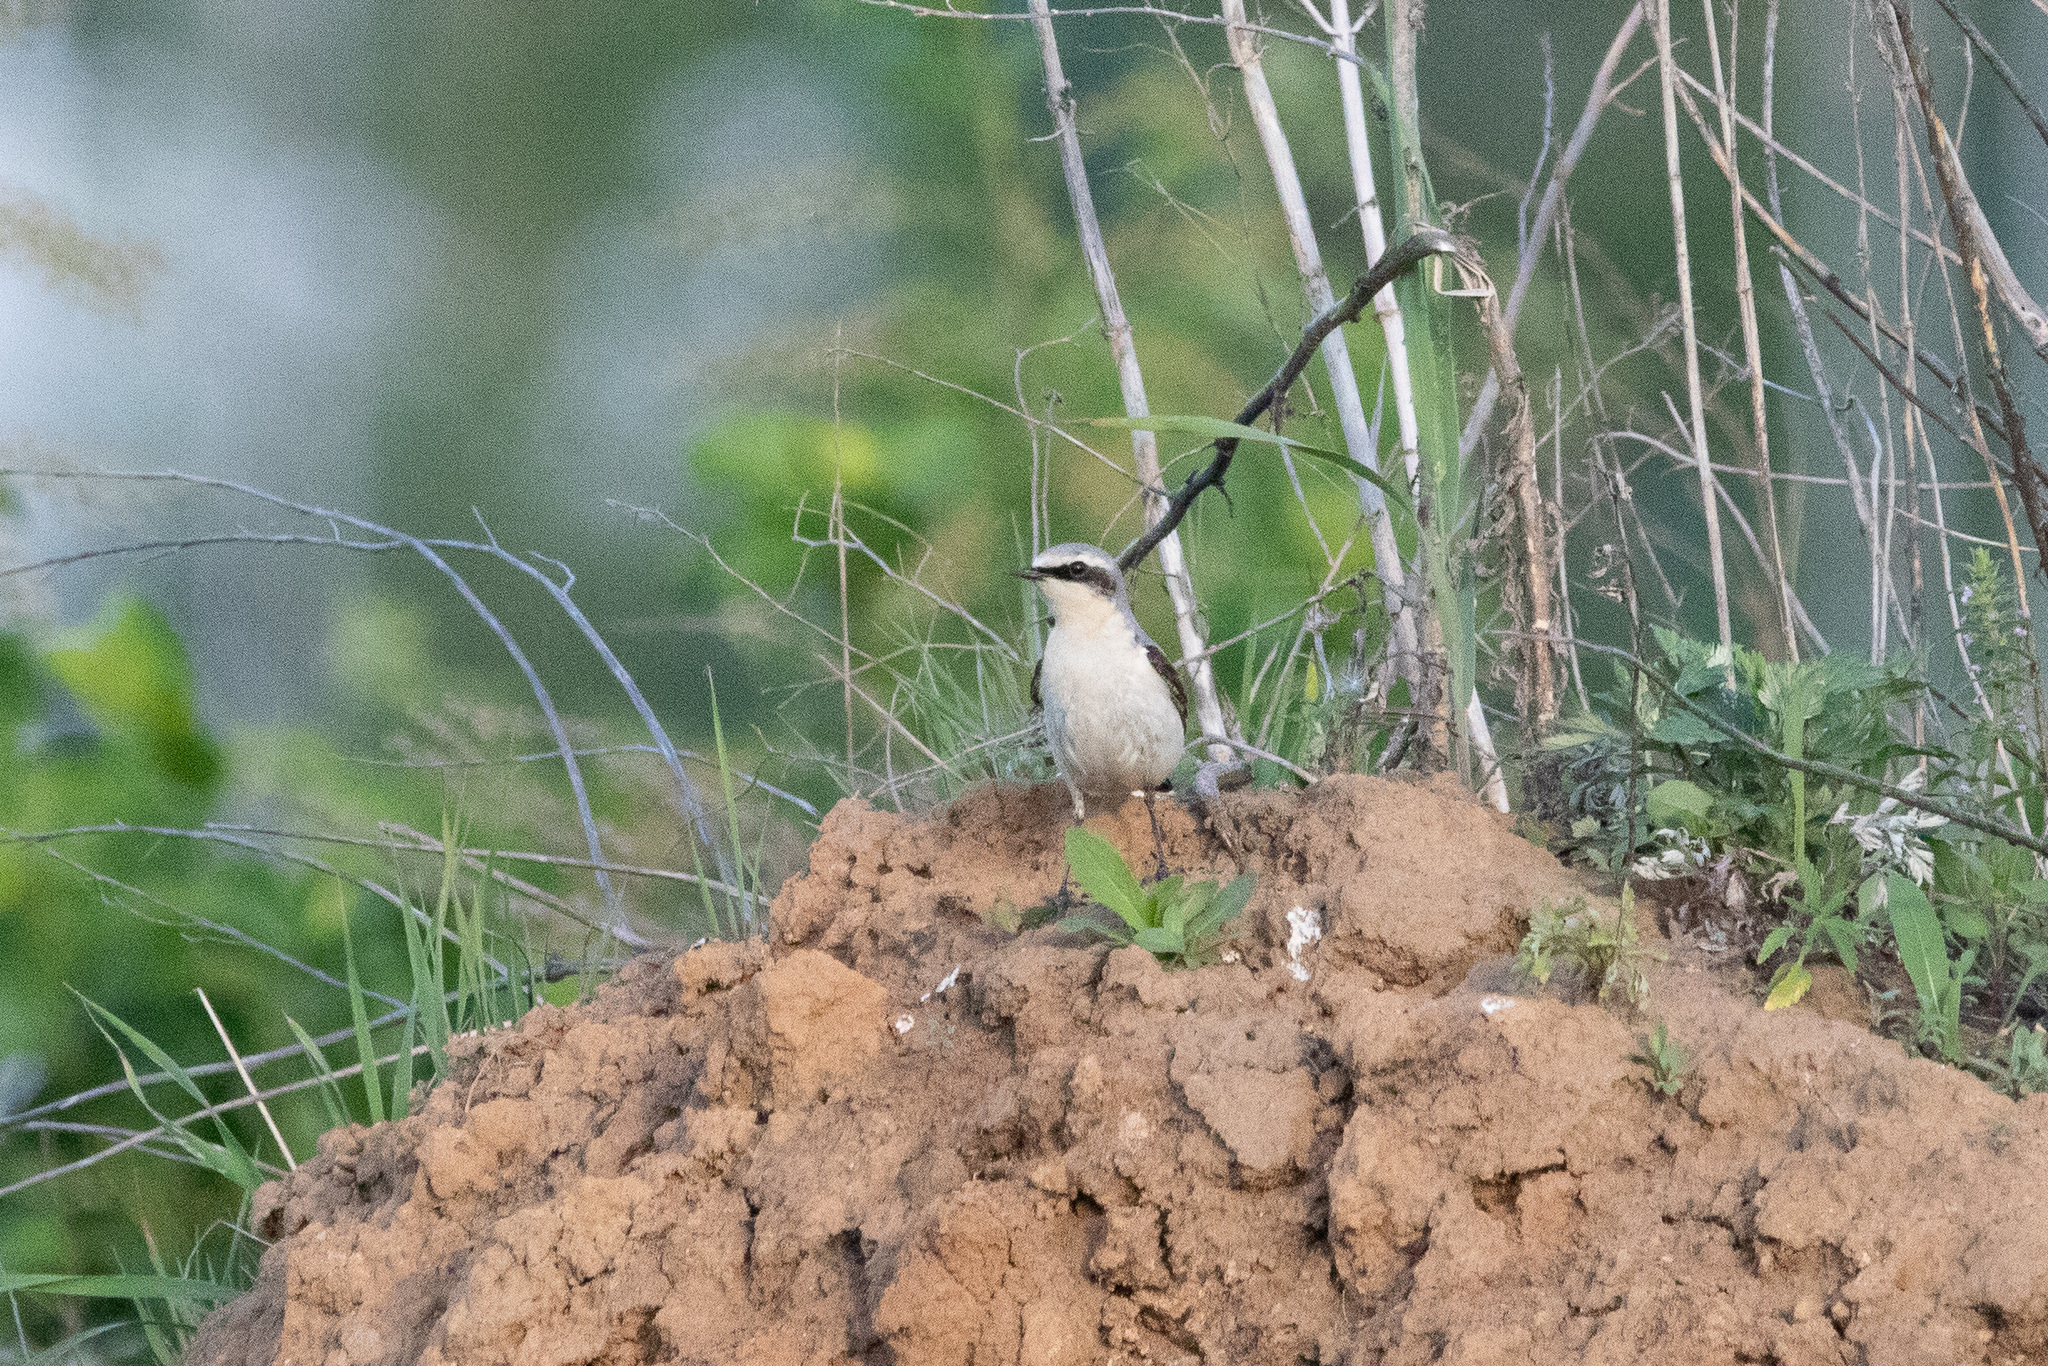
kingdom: Animalia
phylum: Chordata
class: Aves
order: Passeriformes
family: Muscicapidae
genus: Oenanthe
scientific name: Oenanthe oenanthe
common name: Northern wheatear
